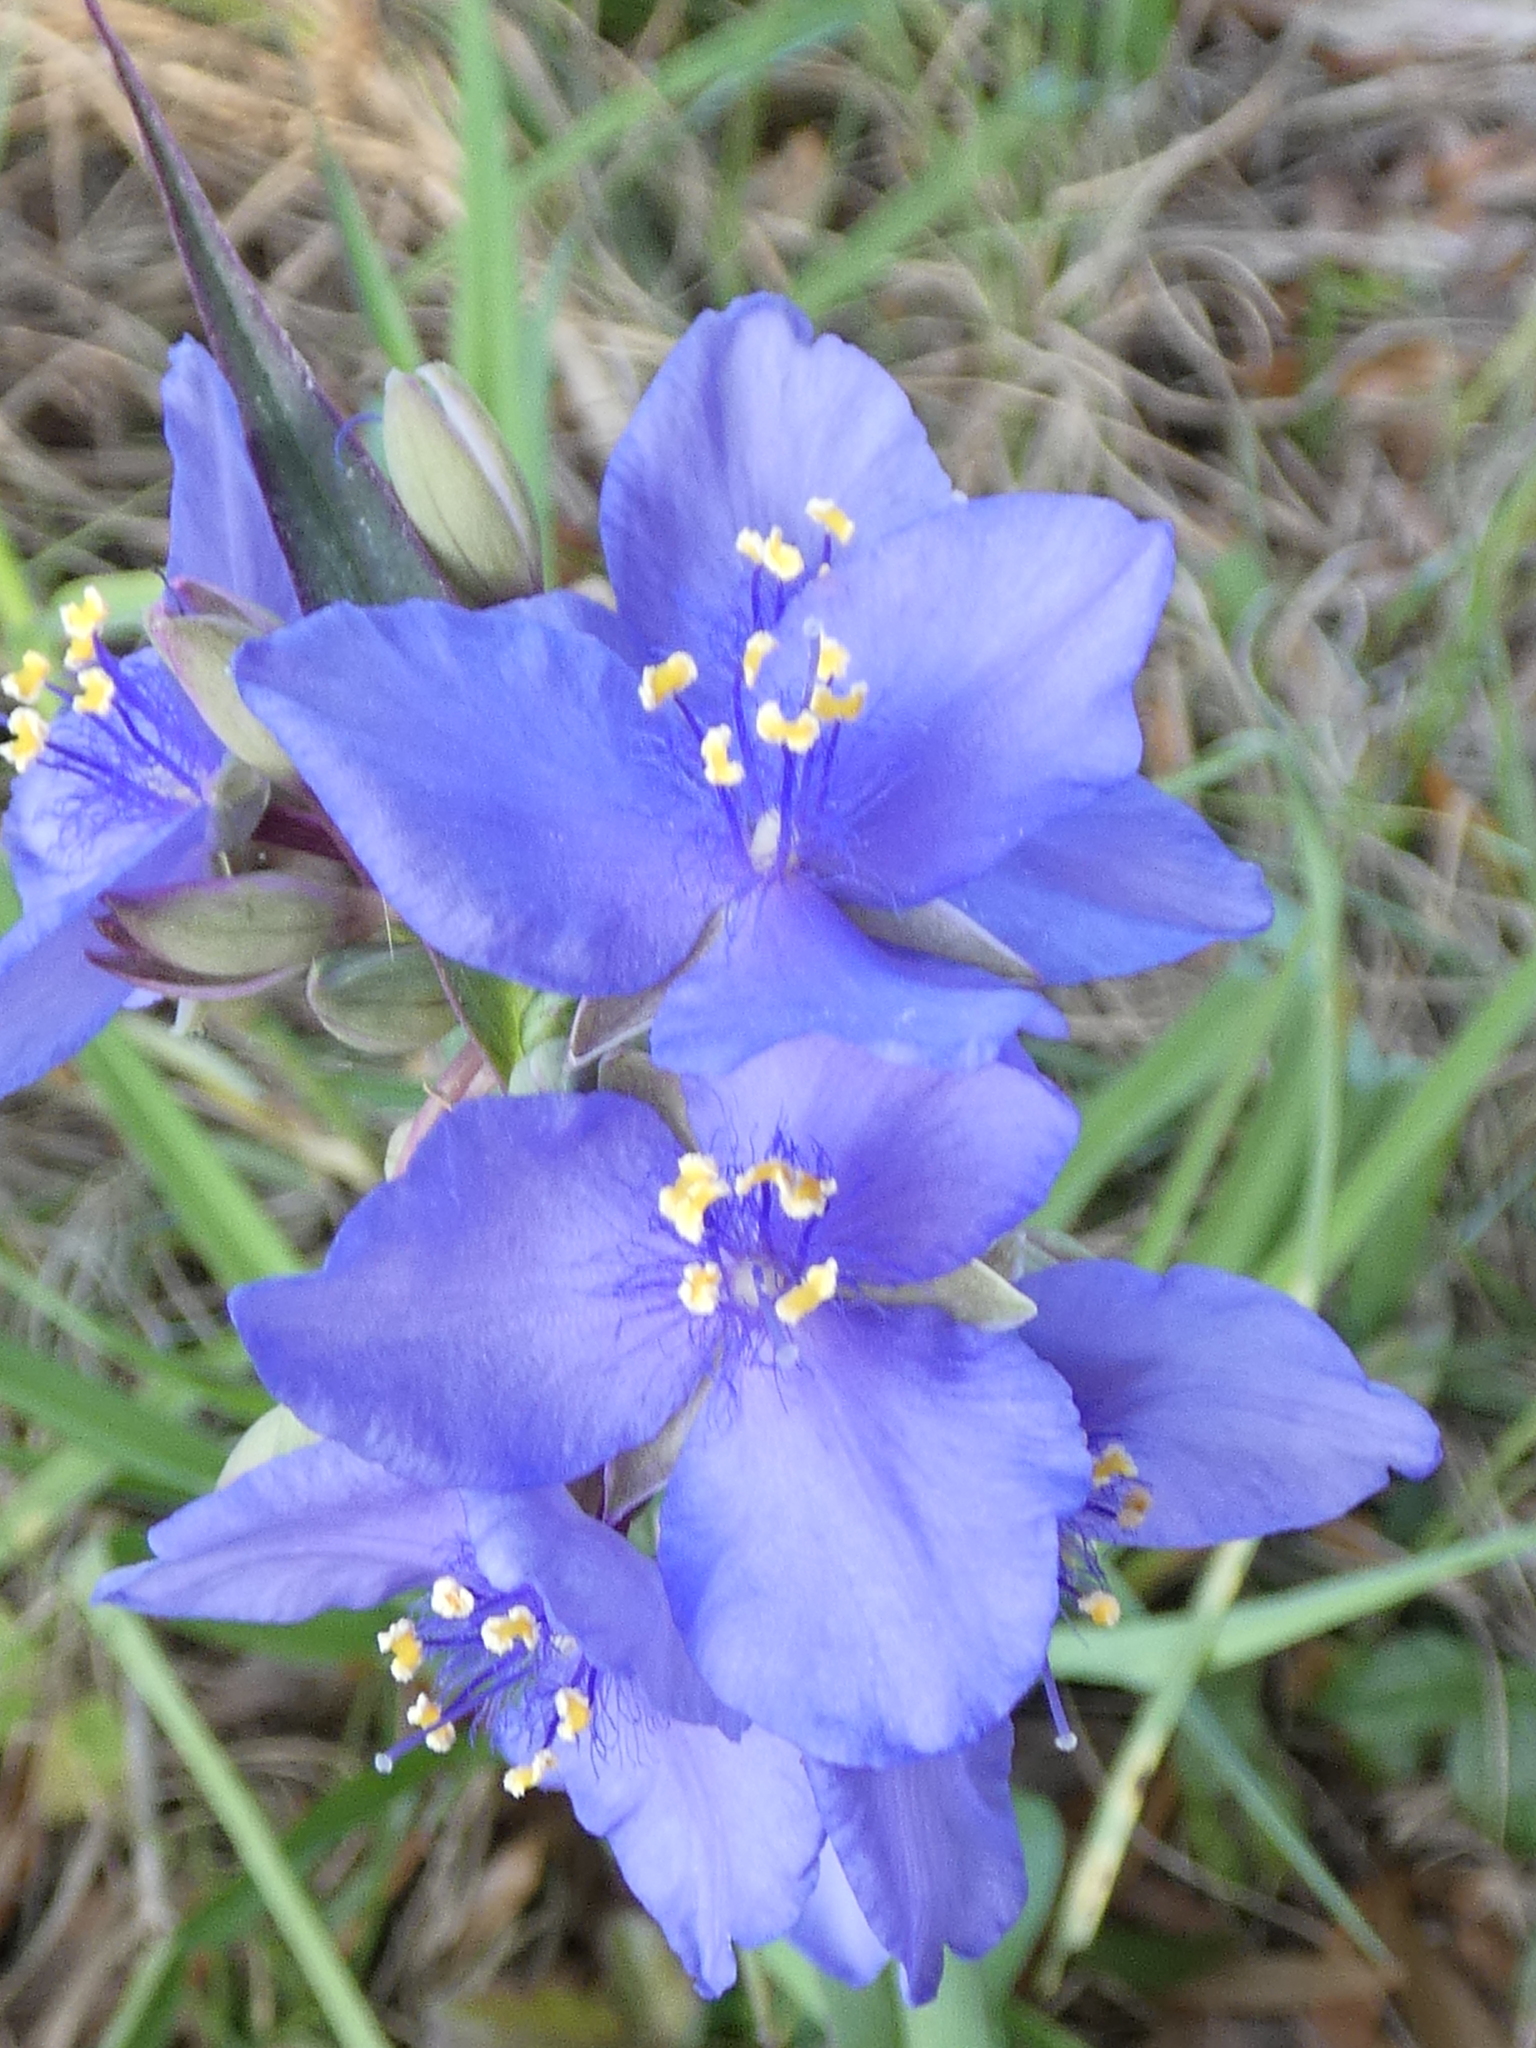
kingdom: Plantae
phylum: Tracheophyta
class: Liliopsida
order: Commelinales
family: Commelinaceae
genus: Tradescantia
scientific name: Tradescantia ohiensis
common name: Ohio spiderwort
